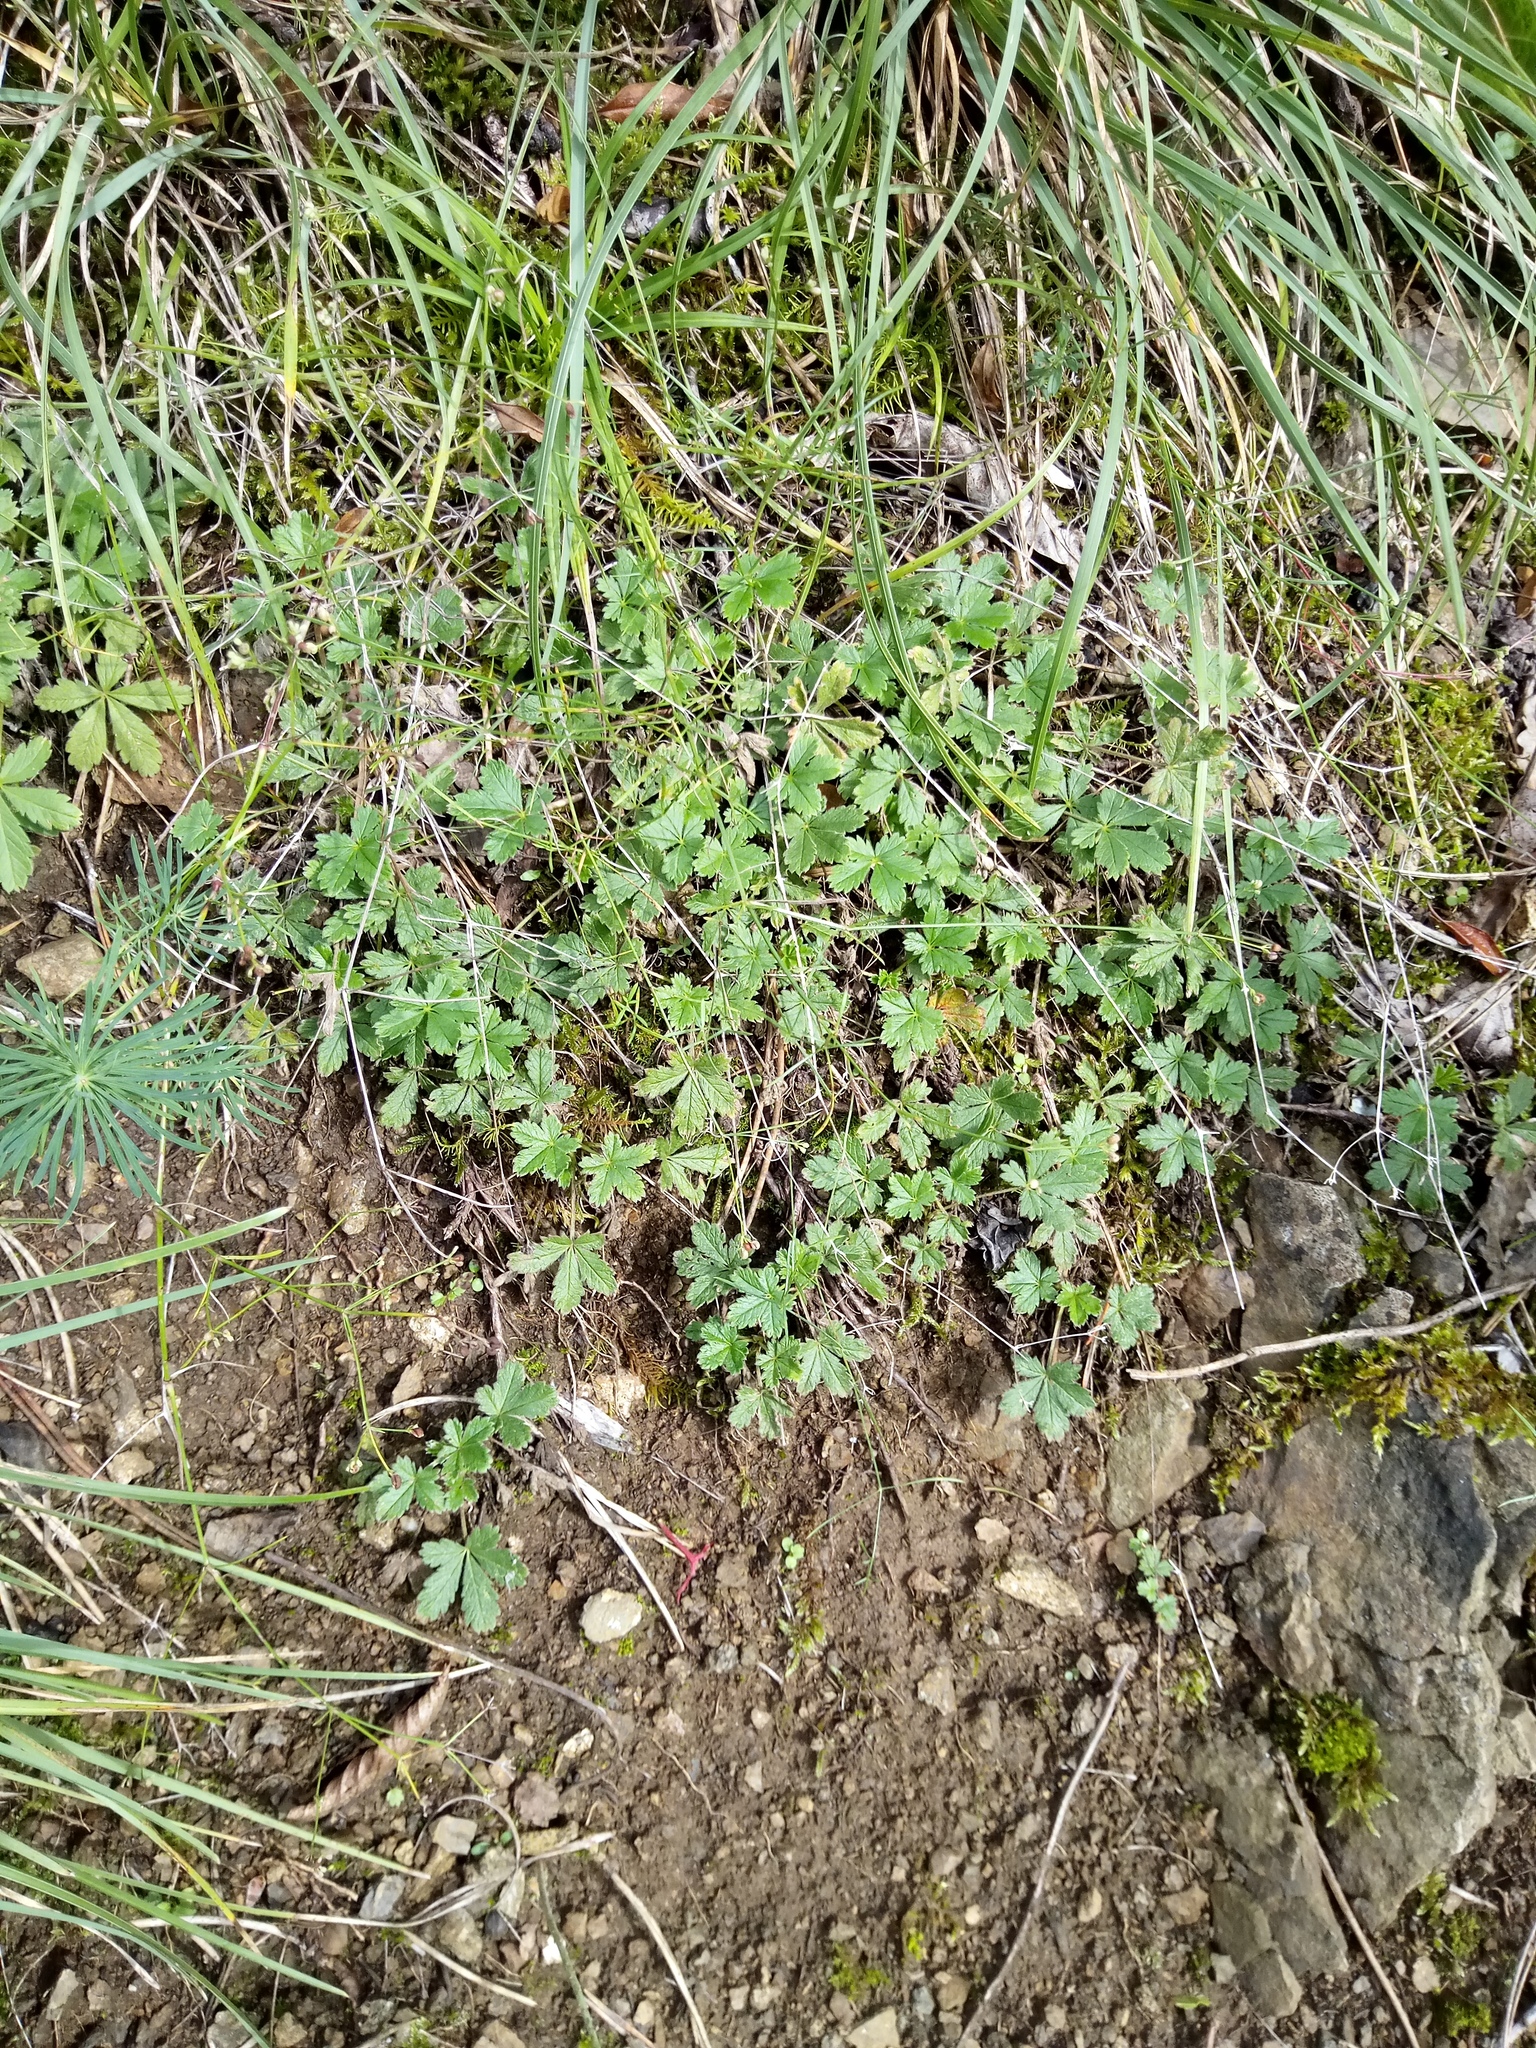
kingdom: Plantae
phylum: Tracheophyta
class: Magnoliopsida
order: Rosales
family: Rosaceae
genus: Potentilla
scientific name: Potentilla incana
